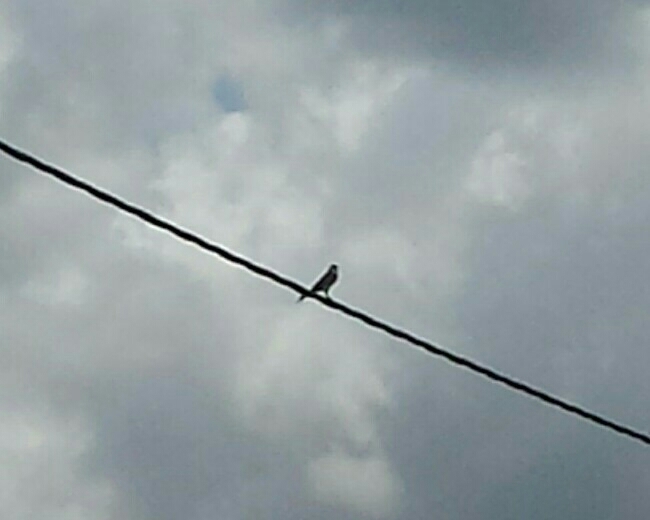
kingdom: Animalia
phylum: Chordata
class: Aves
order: Falconiformes
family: Falconidae
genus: Falco
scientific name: Falco sparverius
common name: American kestrel
